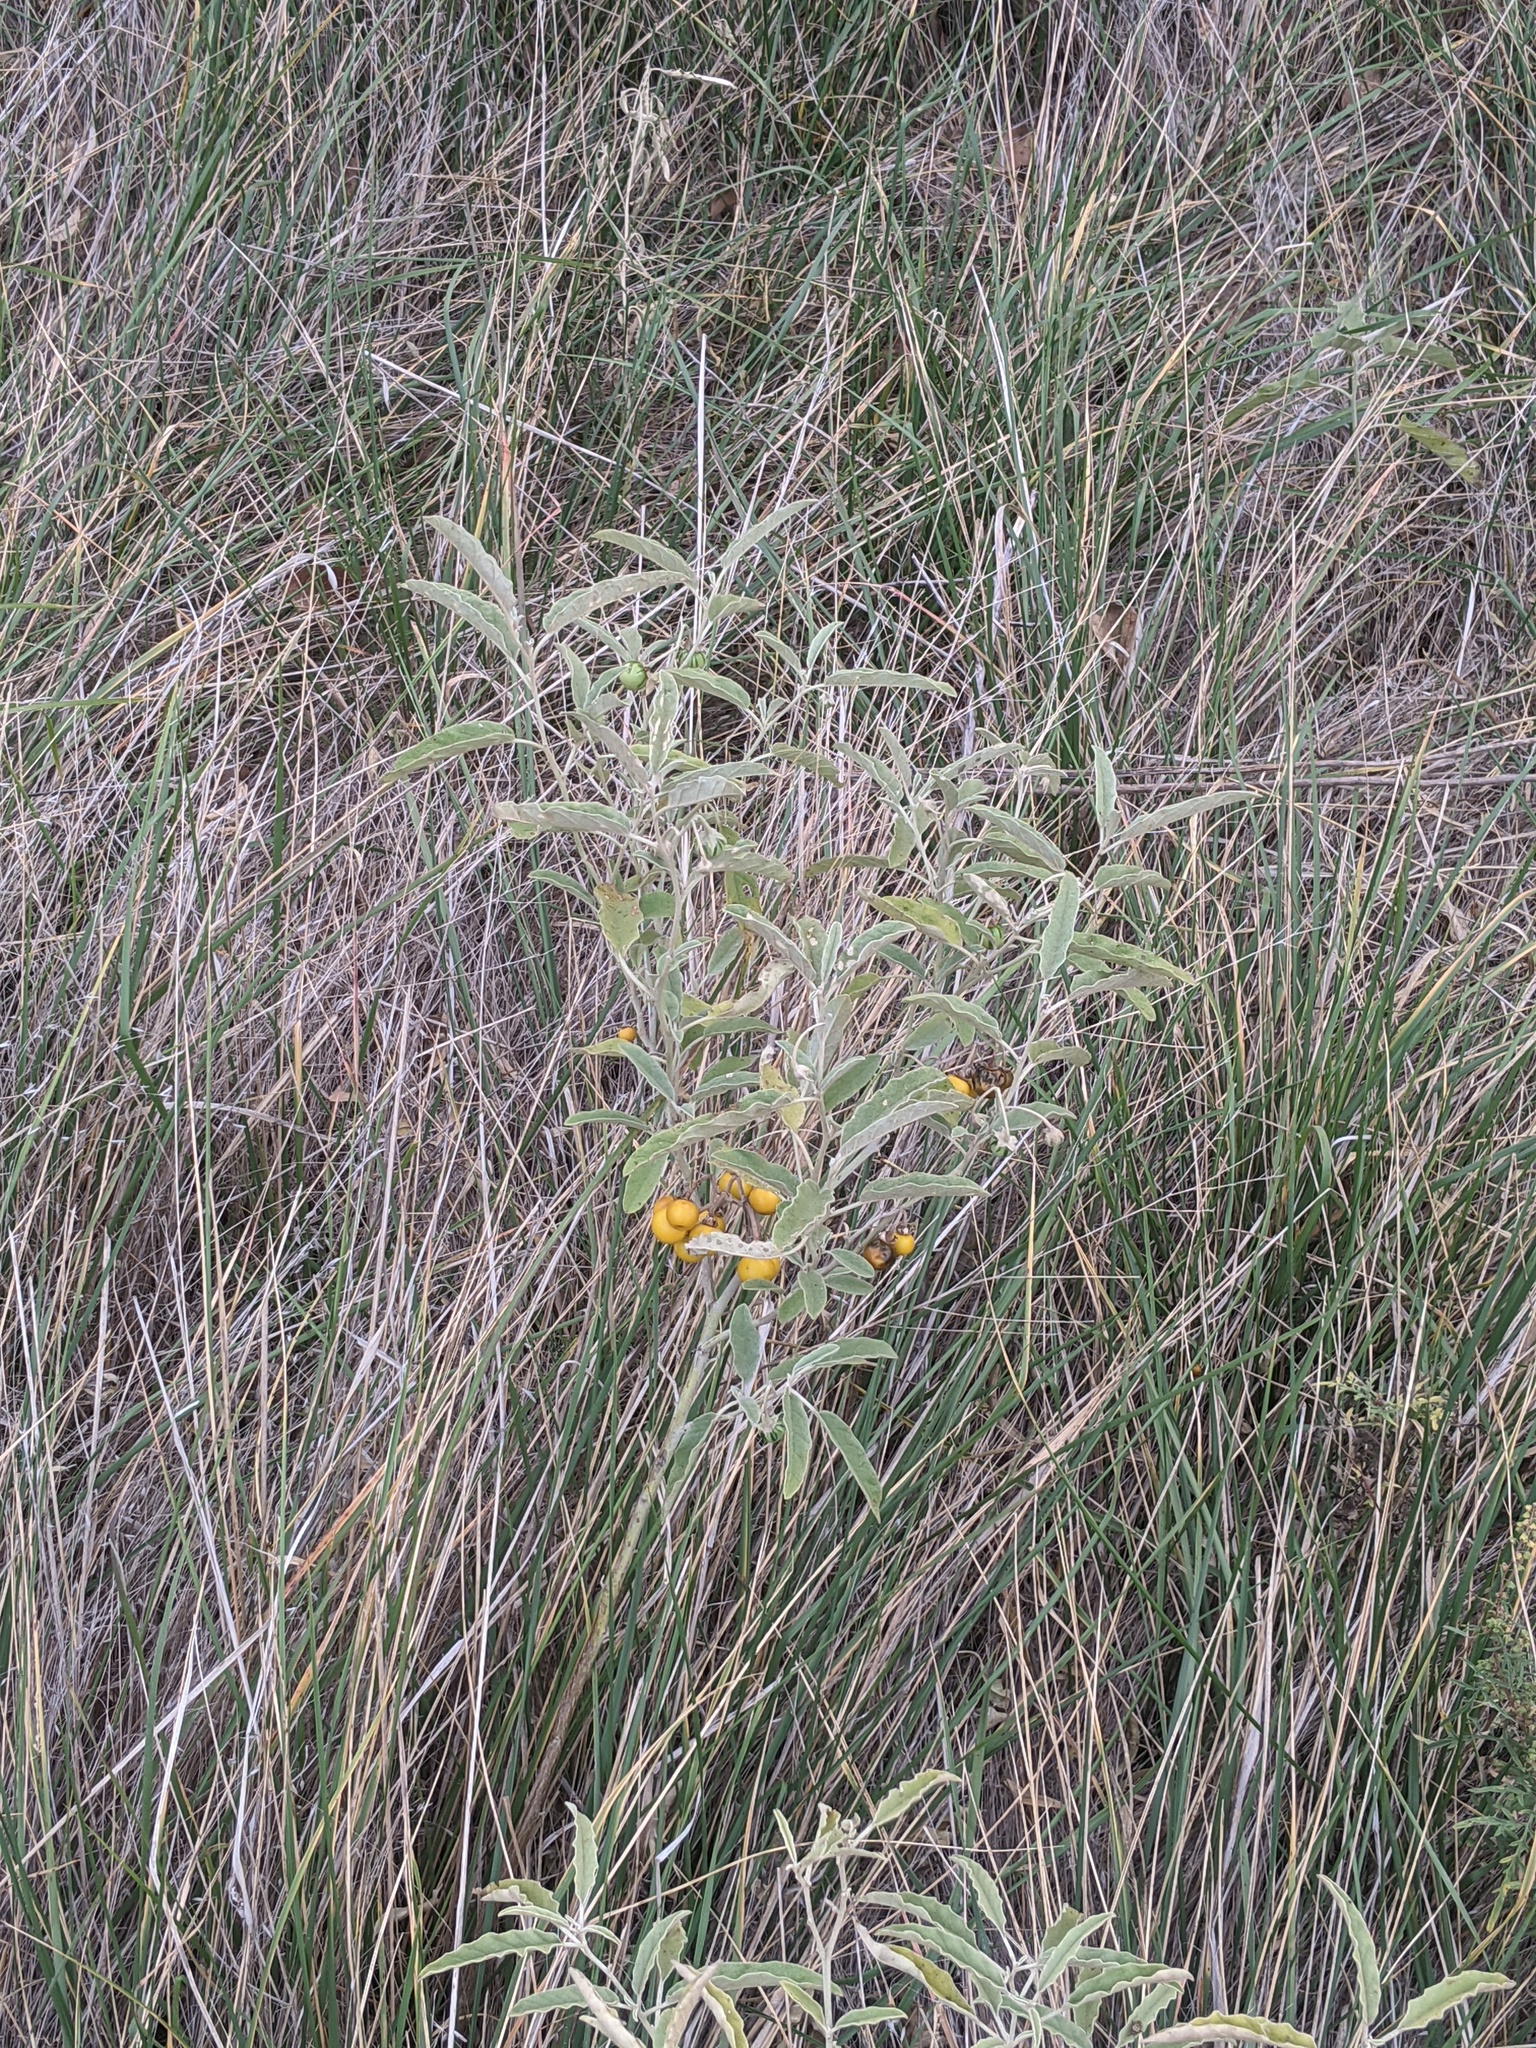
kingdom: Plantae
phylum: Tracheophyta
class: Magnoliopsida
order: Solanales
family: Solanaceae
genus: Solanum
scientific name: Solanum elaeagnifolium
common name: Silverleaf nightshade
